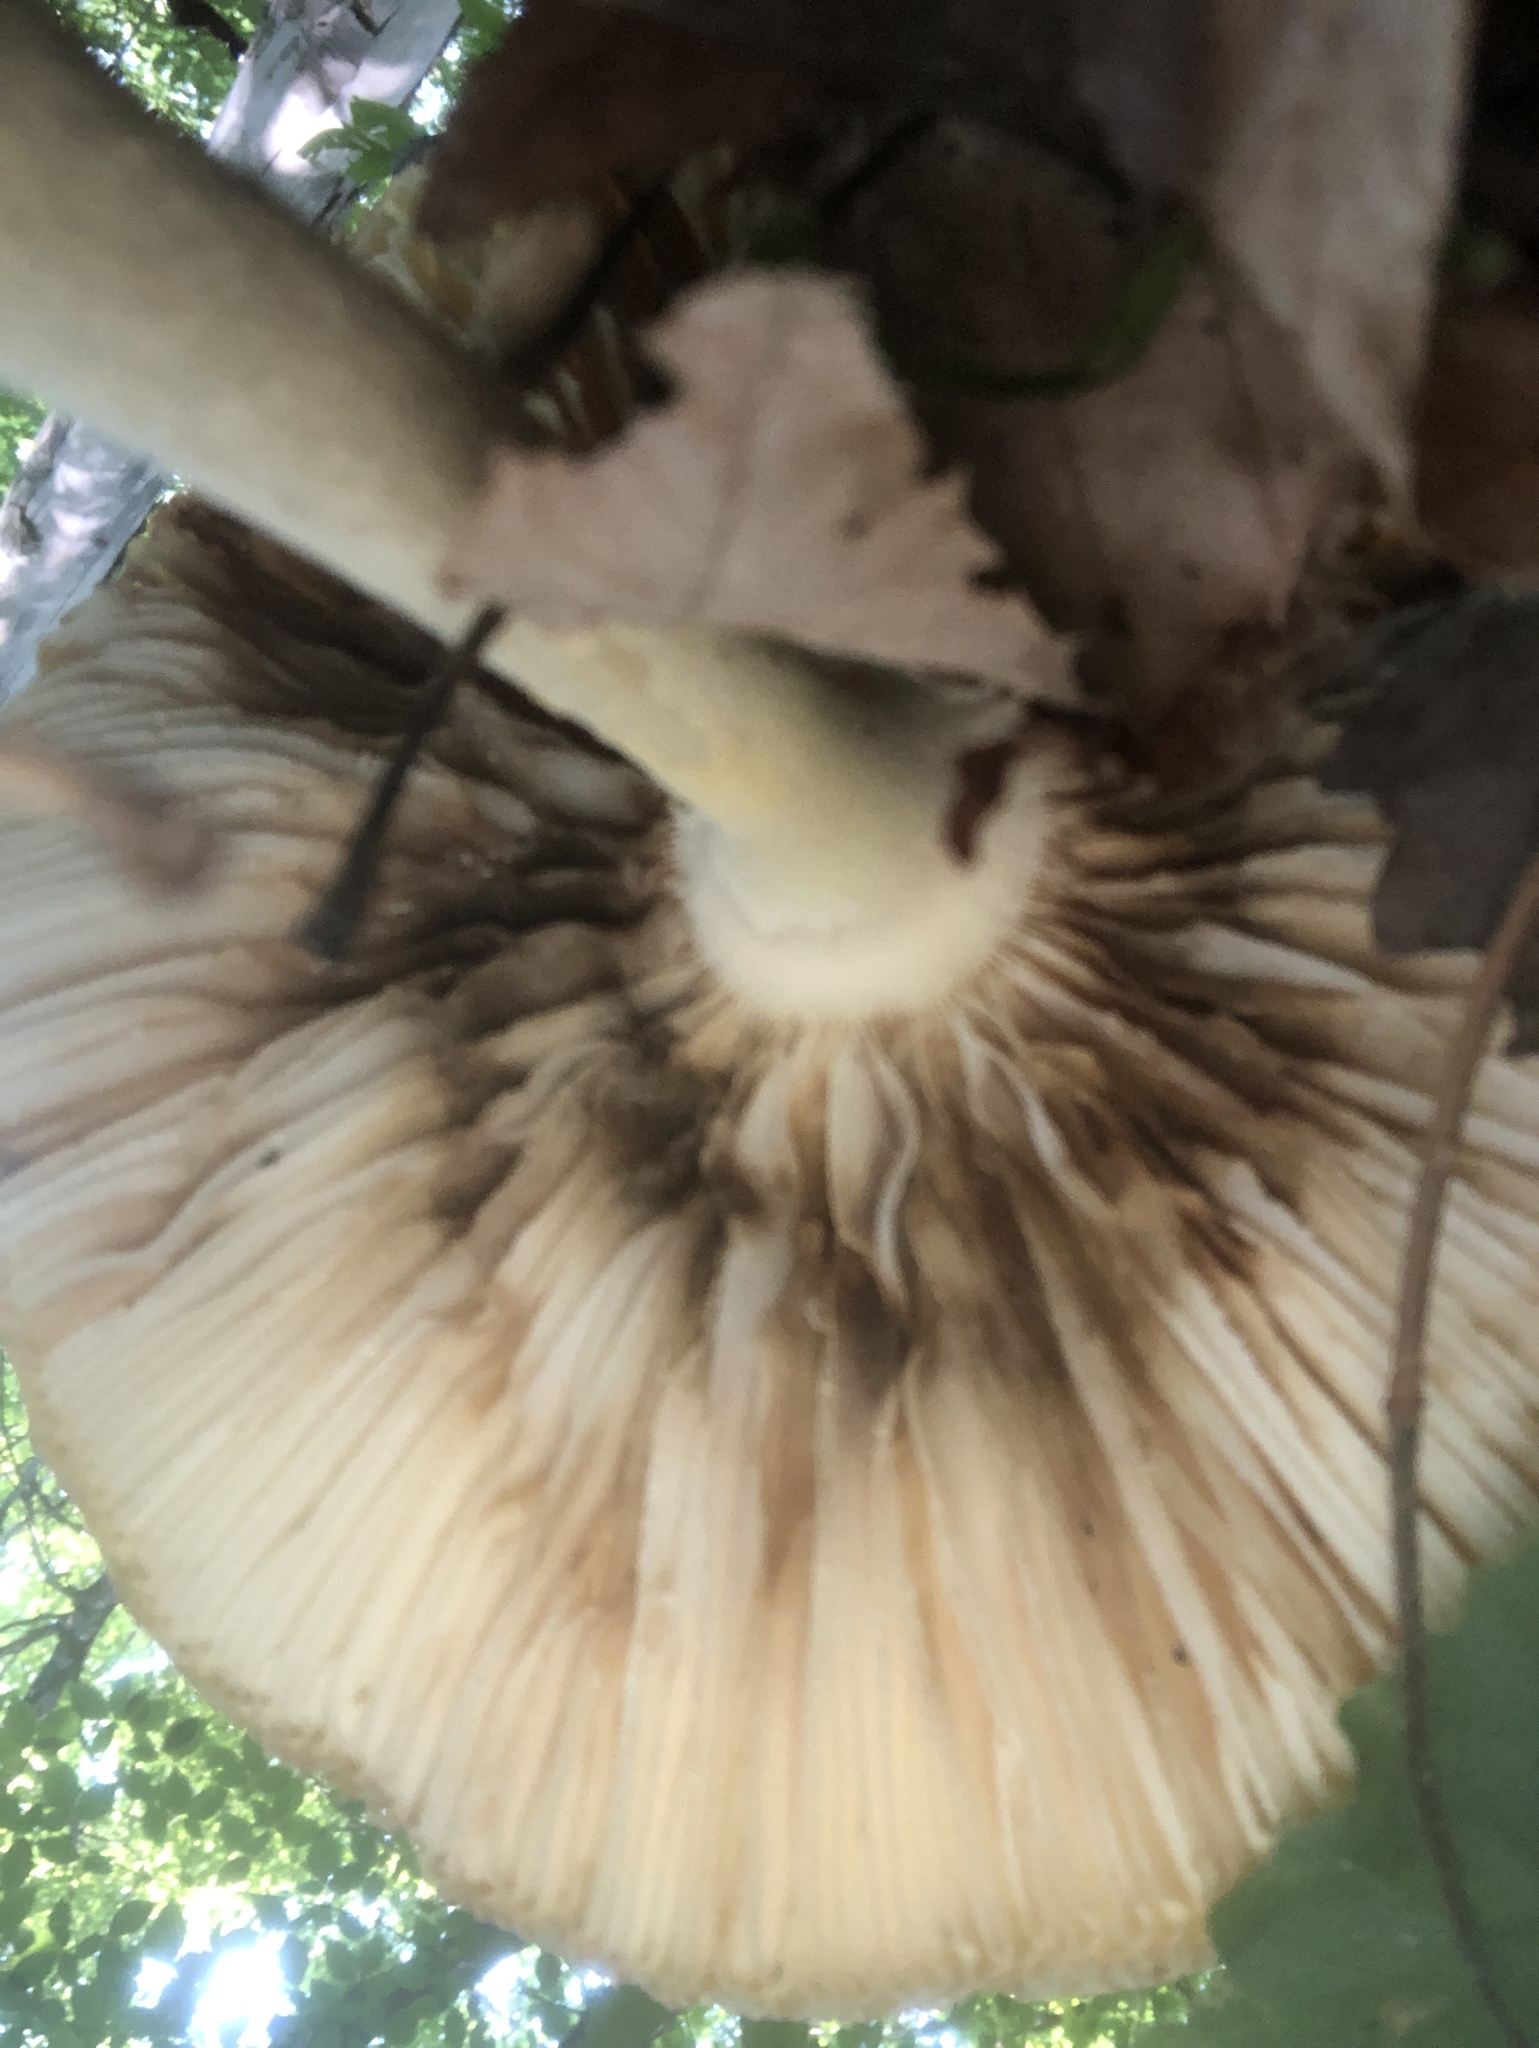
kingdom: Fungi
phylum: Basidiomycota
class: Agaricomycetes
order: Agaricales
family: Amanitaceae
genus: Amanita
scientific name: Amanita muscaria
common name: Fly agaric
